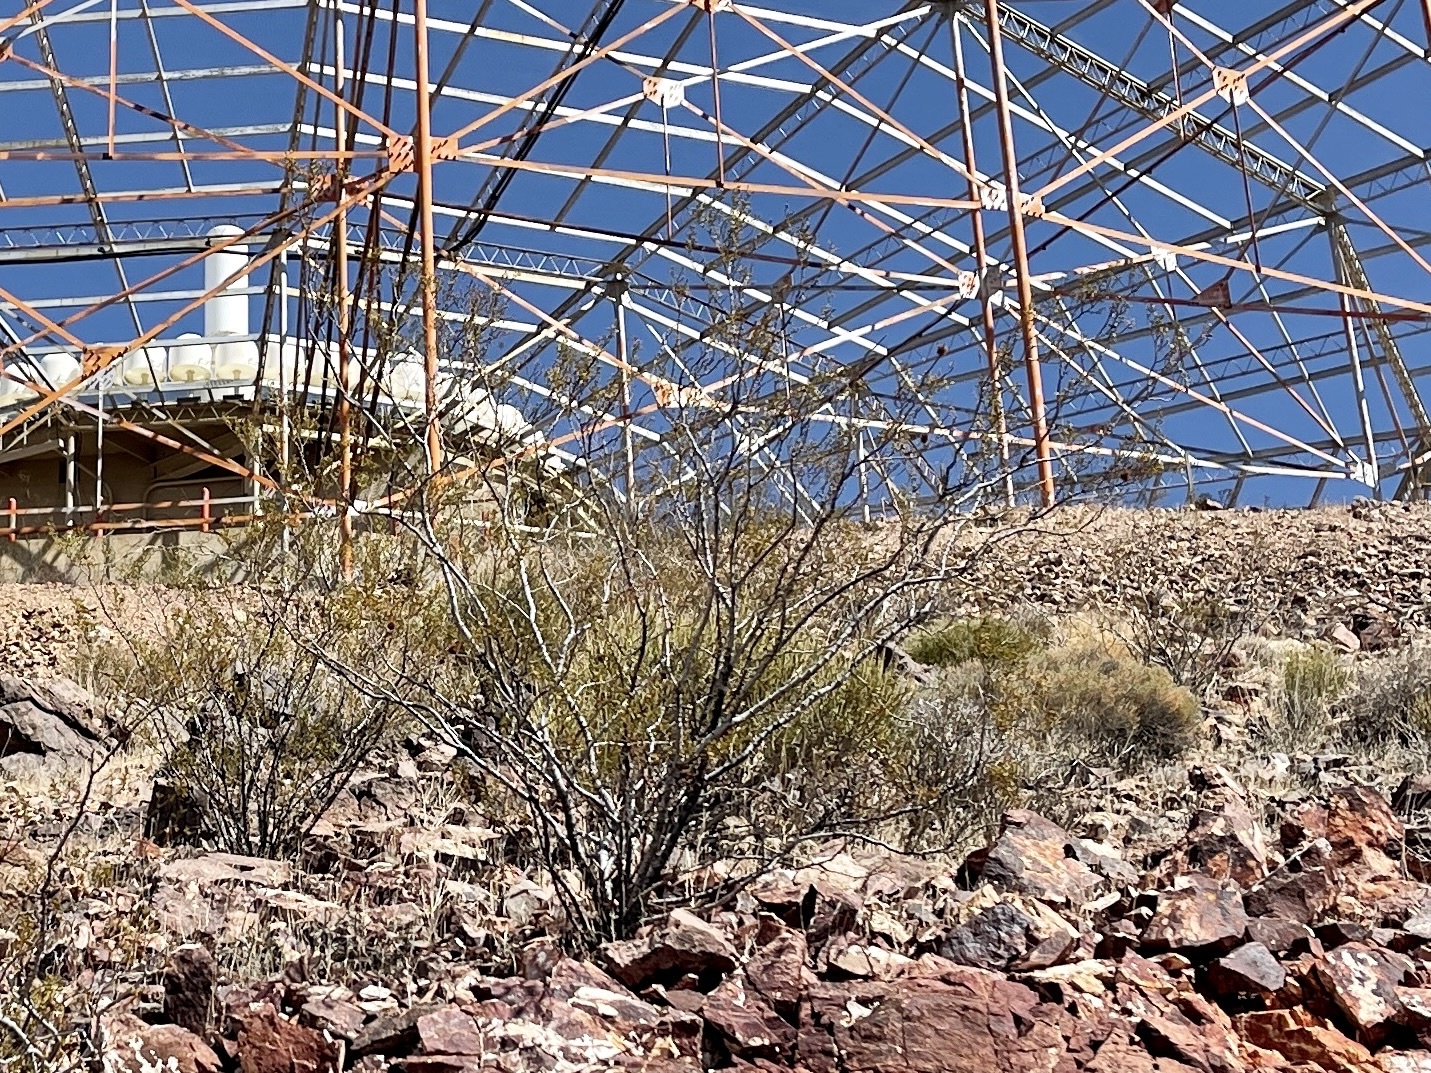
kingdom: Plantae
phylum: Tracheophyta
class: Magnoliopsida
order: Zygophyllales
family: Zygophyllaceae
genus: Larrea
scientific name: Larrea tridentata
